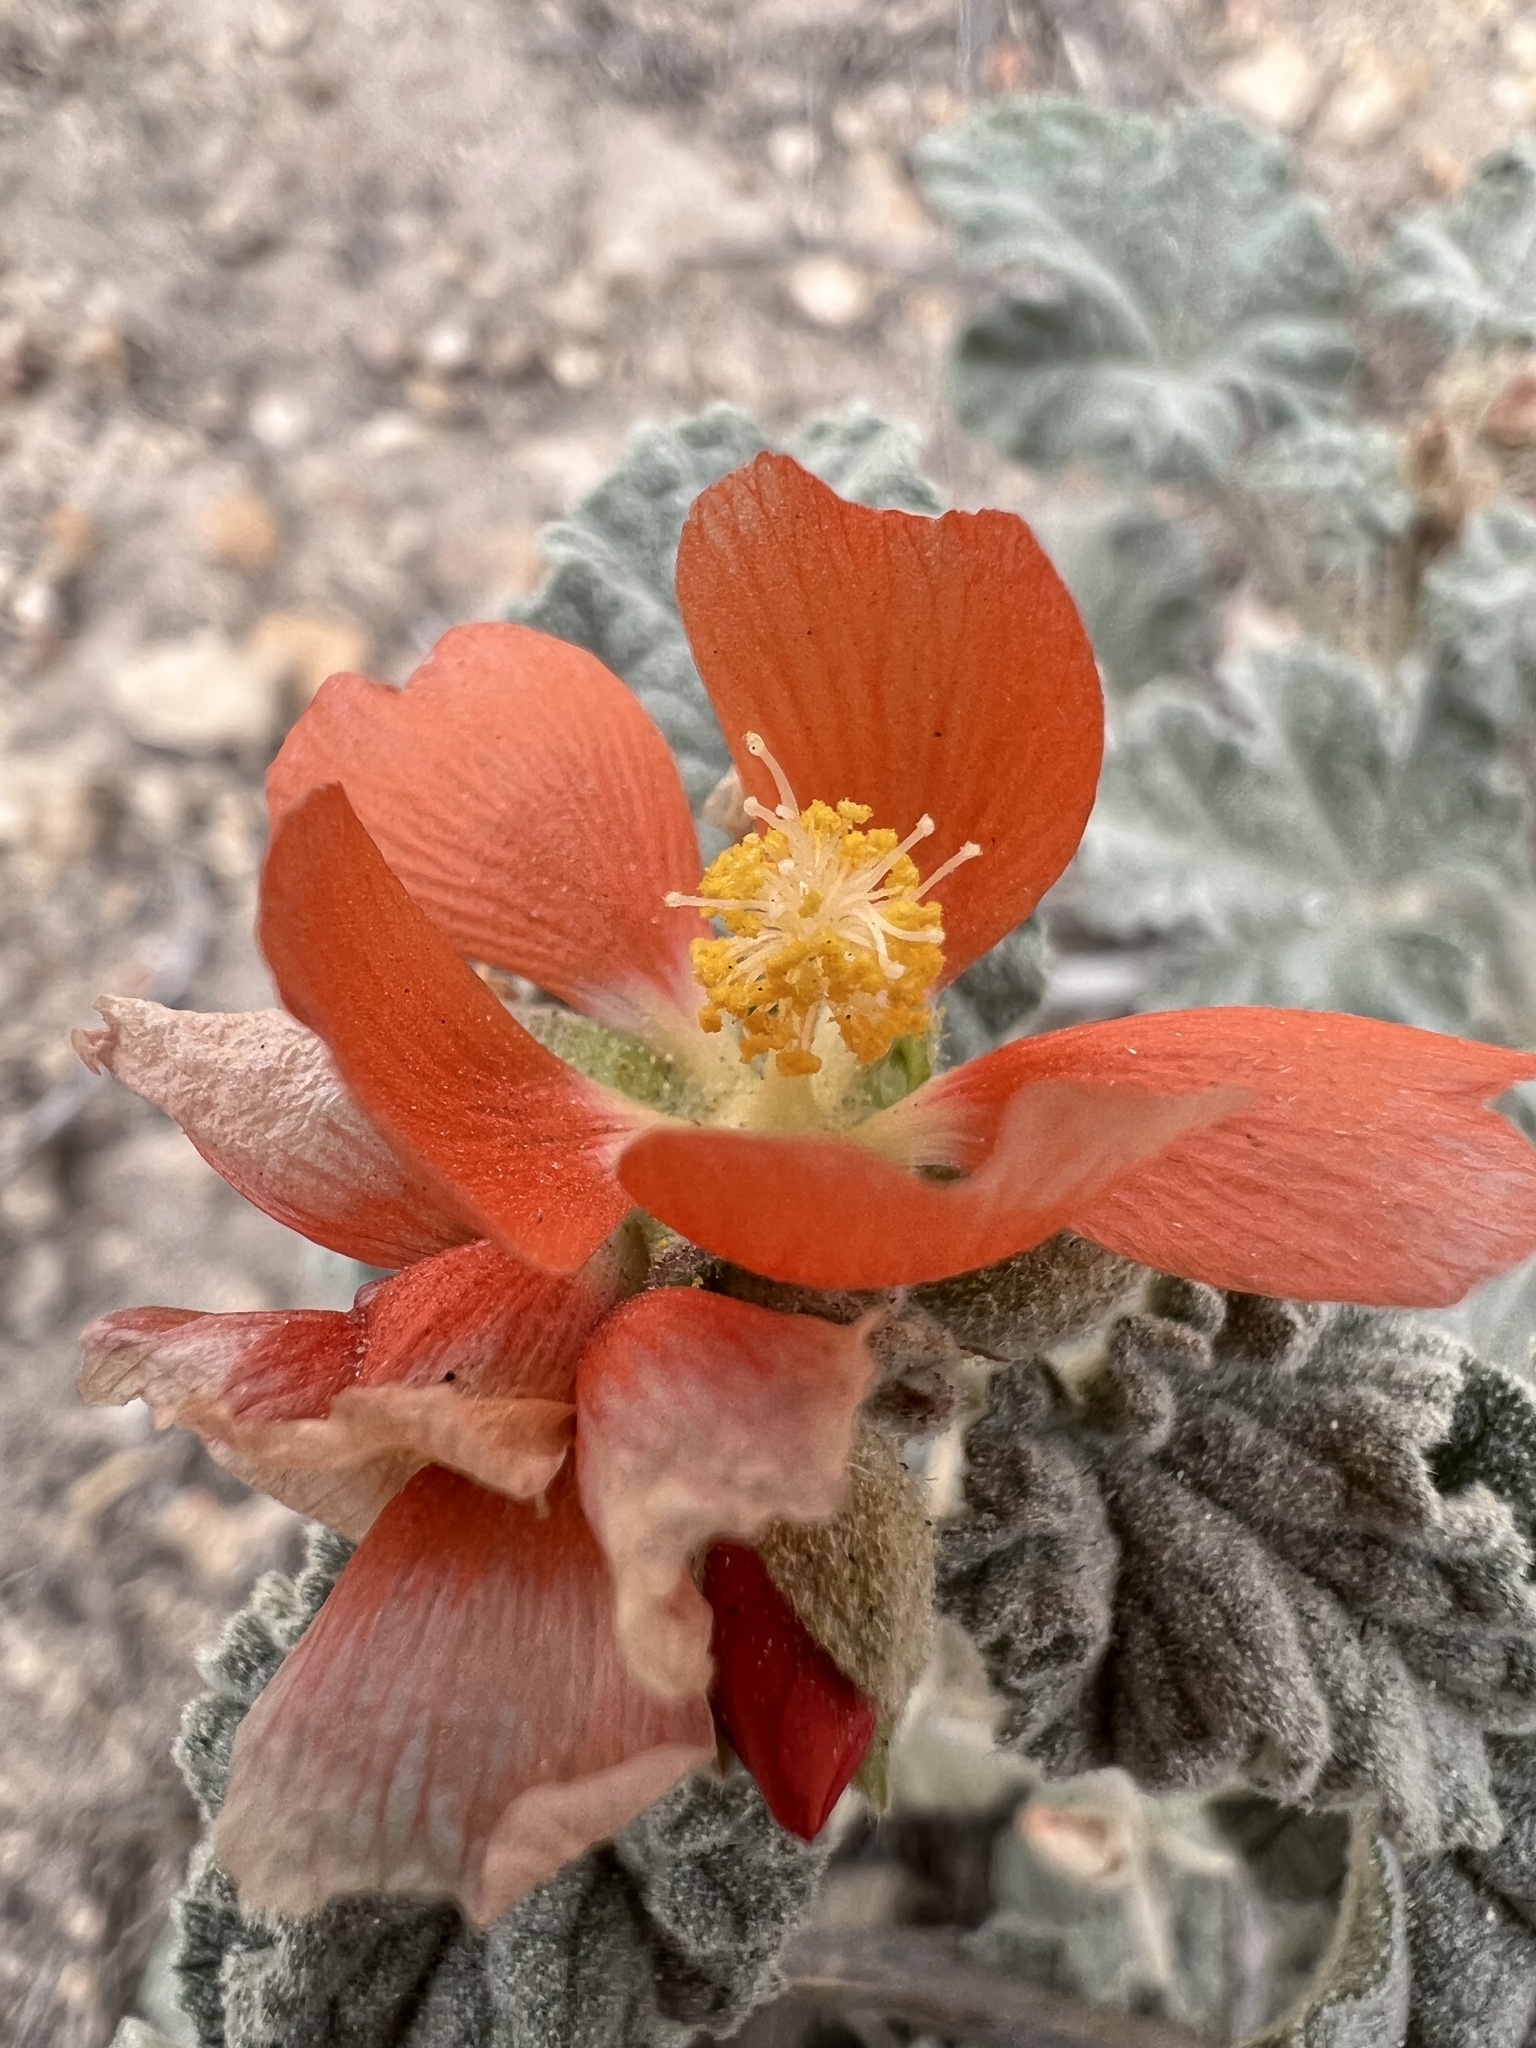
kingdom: Plantae
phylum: Tracheophyta
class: Magnoliopsida
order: Malvales
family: Malvaceae
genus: Sphaeralcea
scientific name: Sphaeralcea ambigua
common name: Apricot globe-mallow
